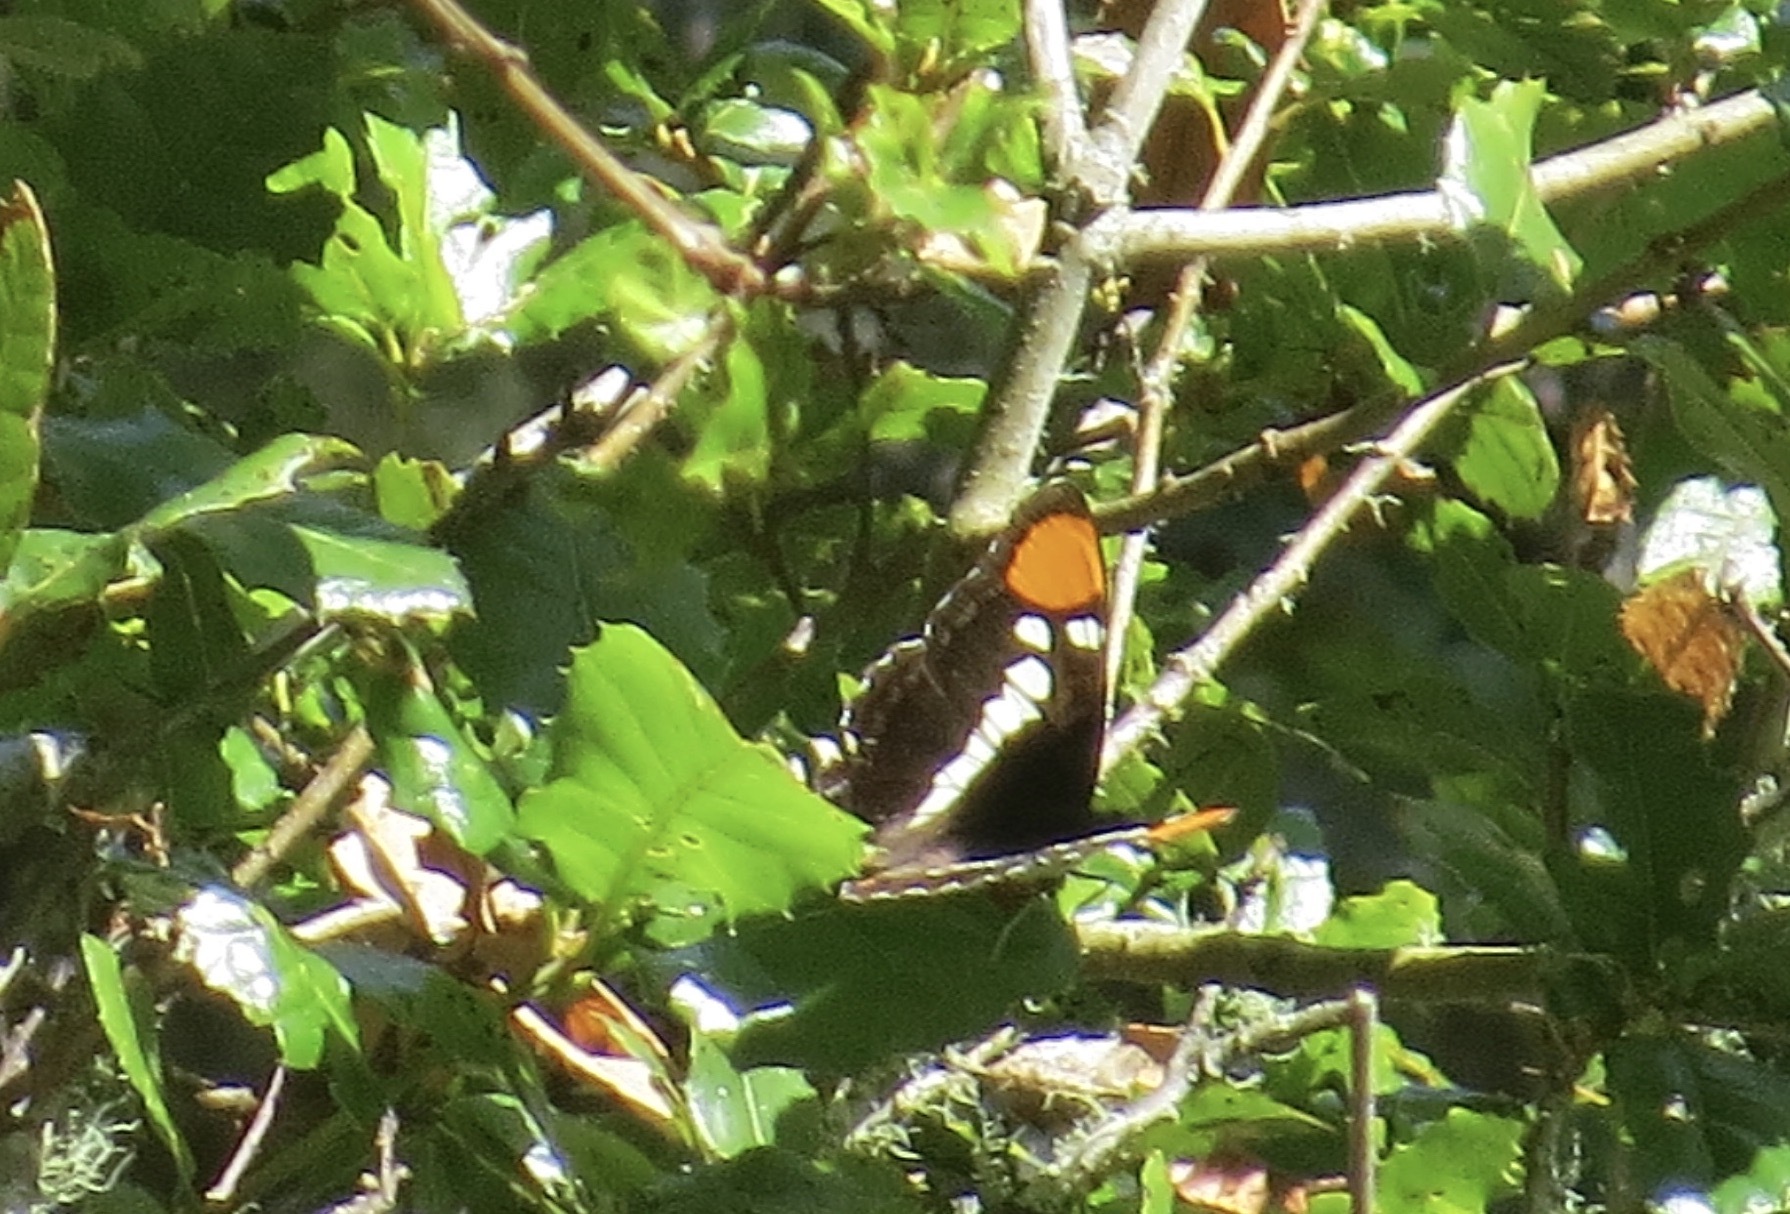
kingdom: Animalia
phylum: Arthropoda
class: Insecta
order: Lepidoptera
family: Nymphalidae
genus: Limenitis
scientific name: Limenitis bredowii
